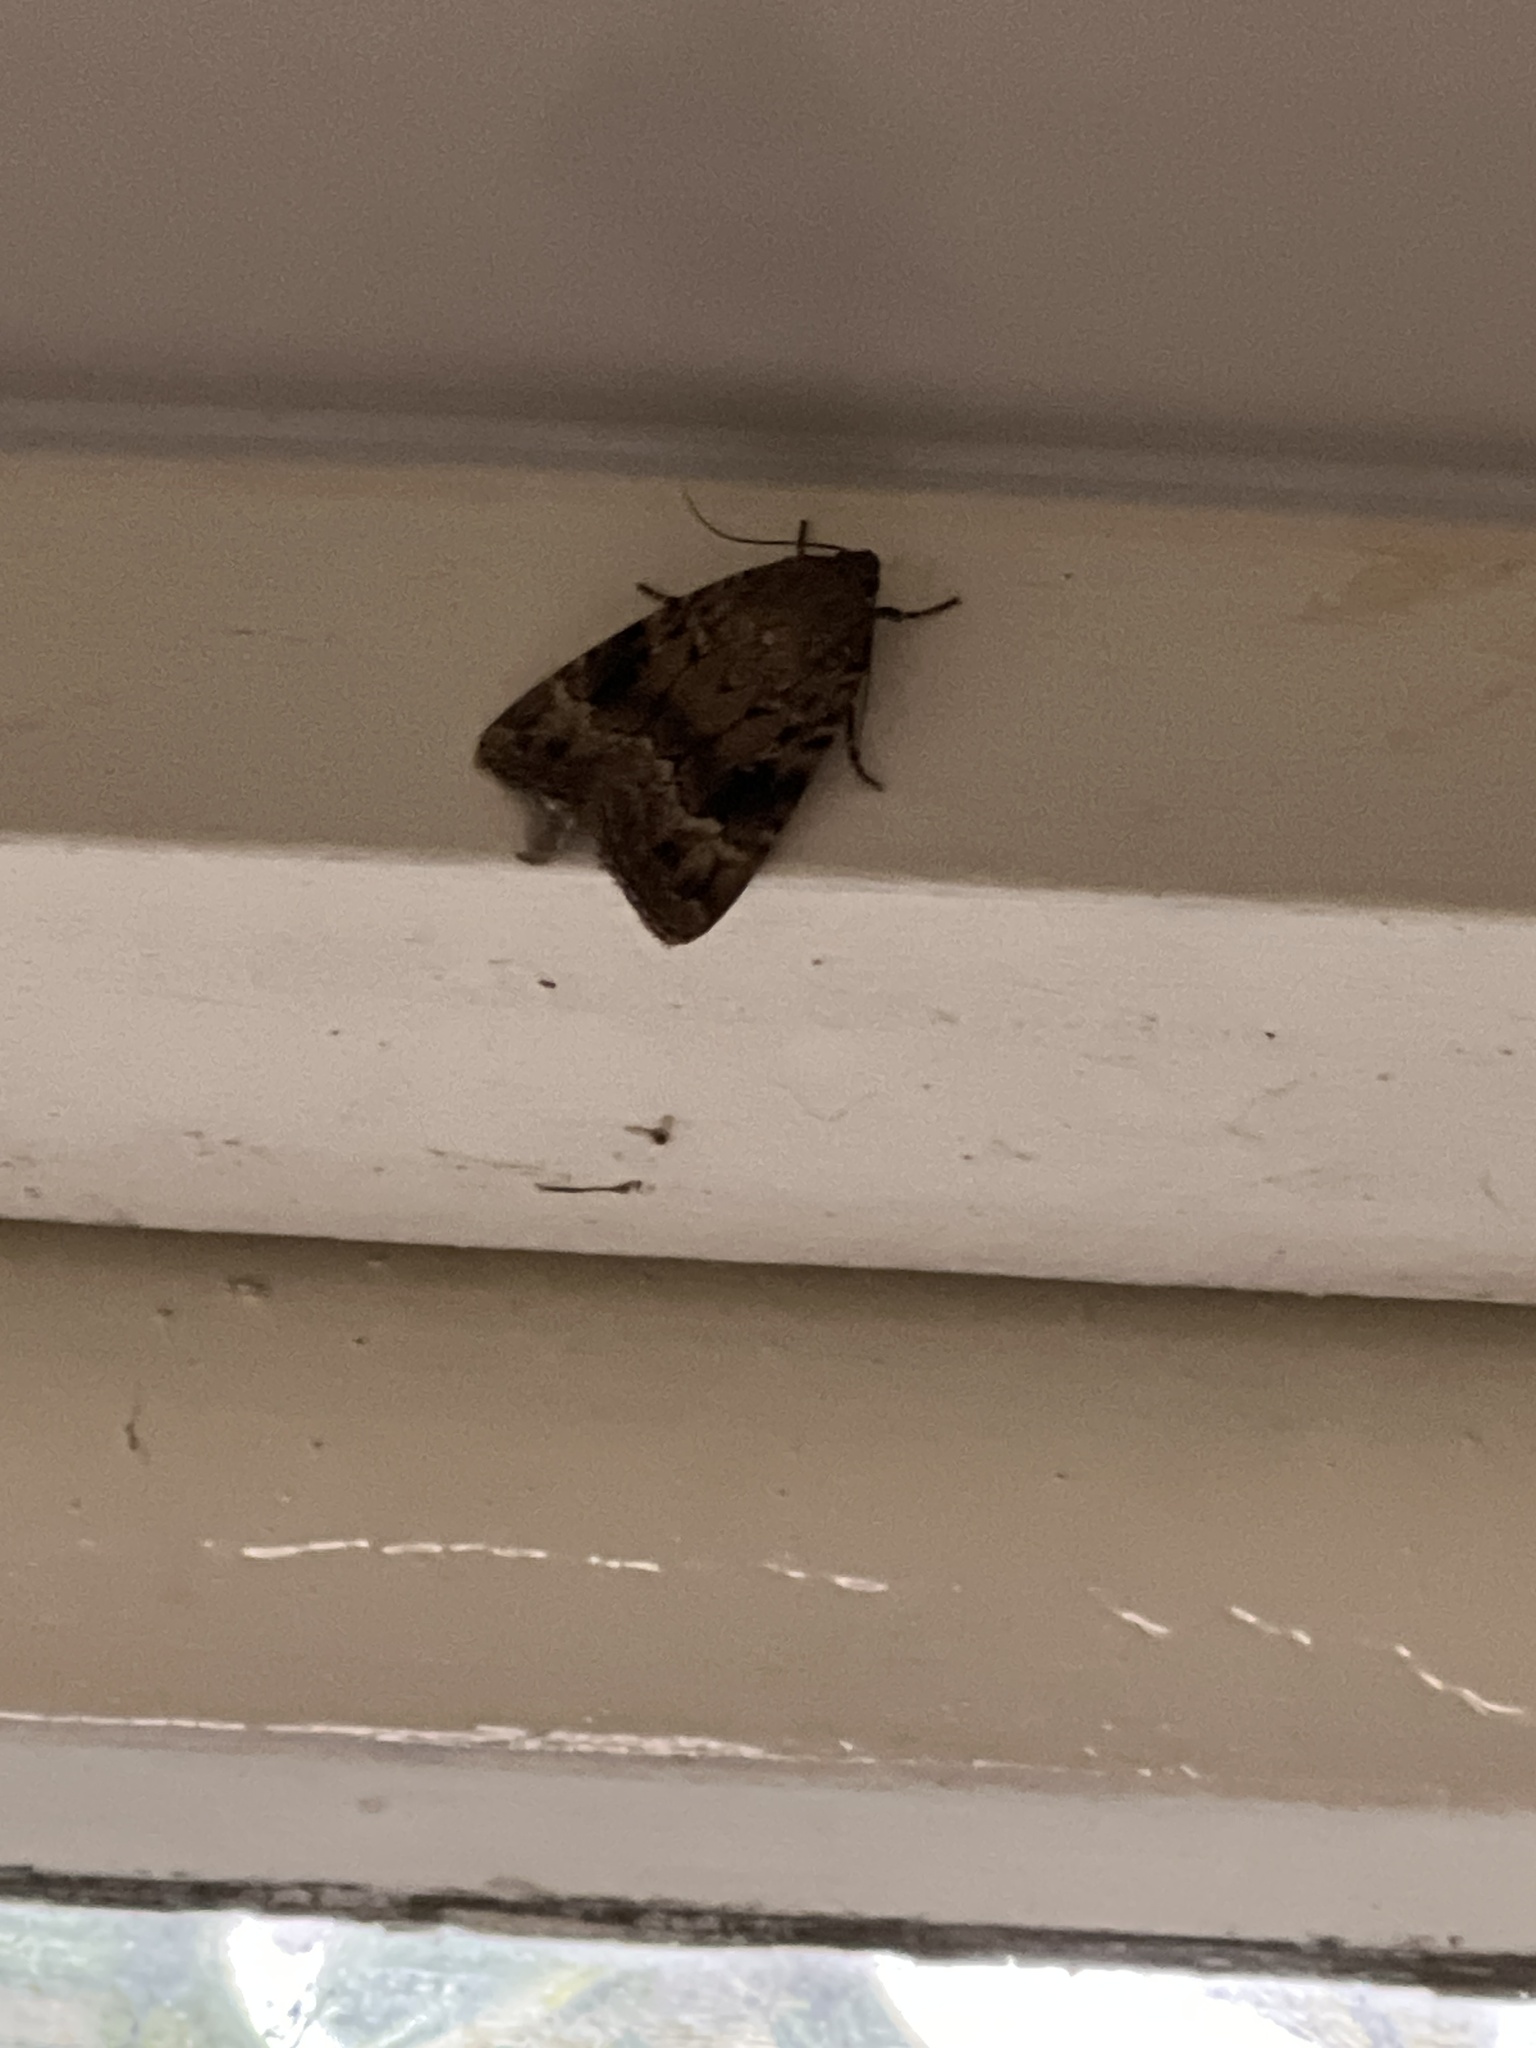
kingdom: Animalia
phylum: Arthropoda
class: Insecta
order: Lepidoptera
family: Noctuidae
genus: Amphipyra
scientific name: Amphipyra pyramidea
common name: Copper underwing
